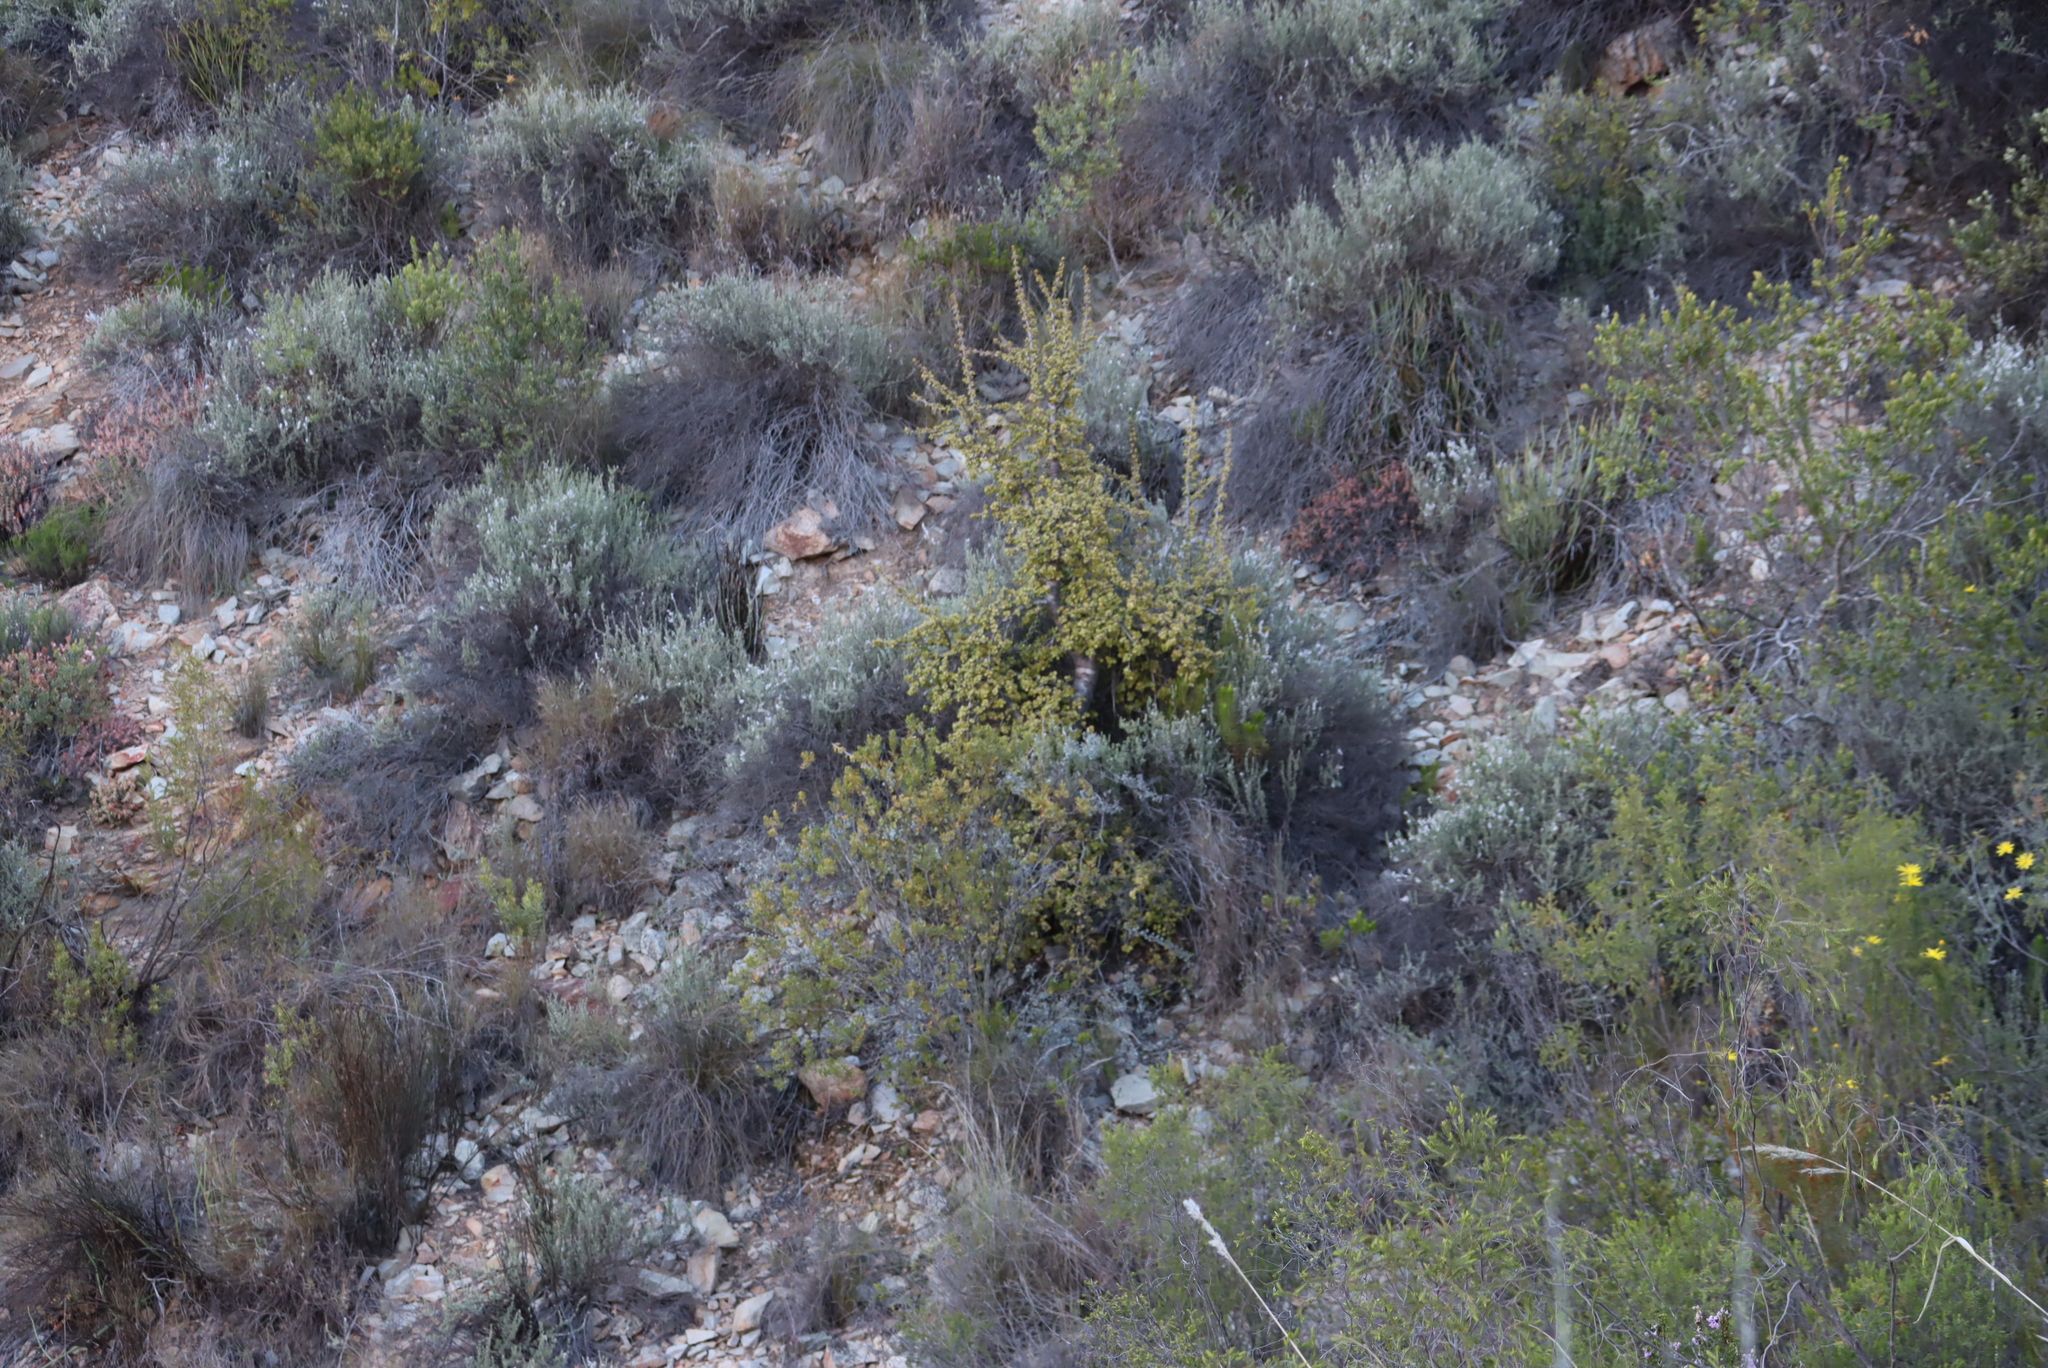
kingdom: Plantae
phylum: Tracheophyta
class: Magnoliopsida
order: Caryophyllales
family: Didiereaceae
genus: Portulacaria
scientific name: Portulacaria afra
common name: Elephant-bush
